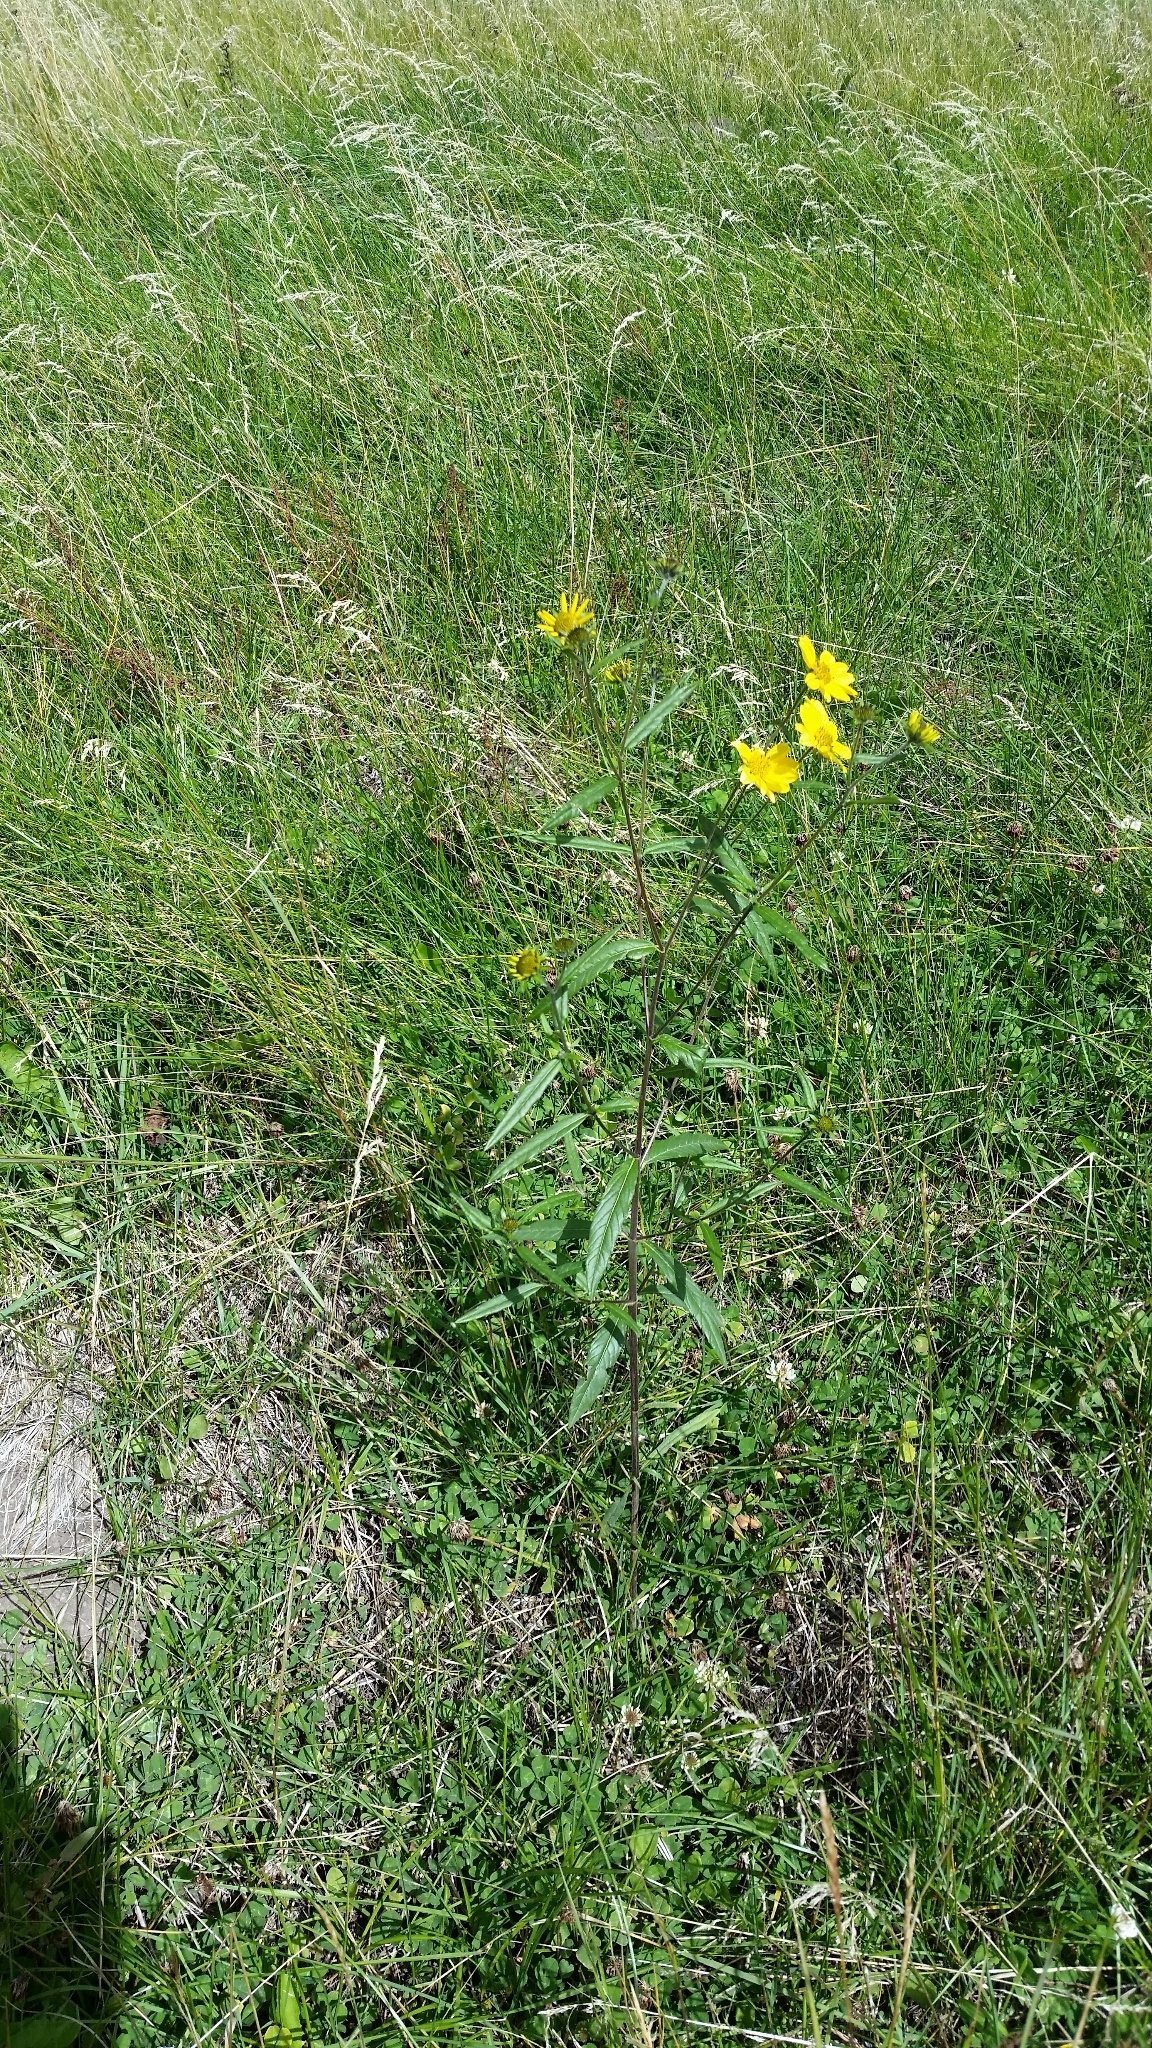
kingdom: Plantae
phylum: Tracheophyta
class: Magnoliopsida
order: Asterales
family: Asteraceae
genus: Heliomeris
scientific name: Heliomeris multiflora
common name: Showy goldeneye
